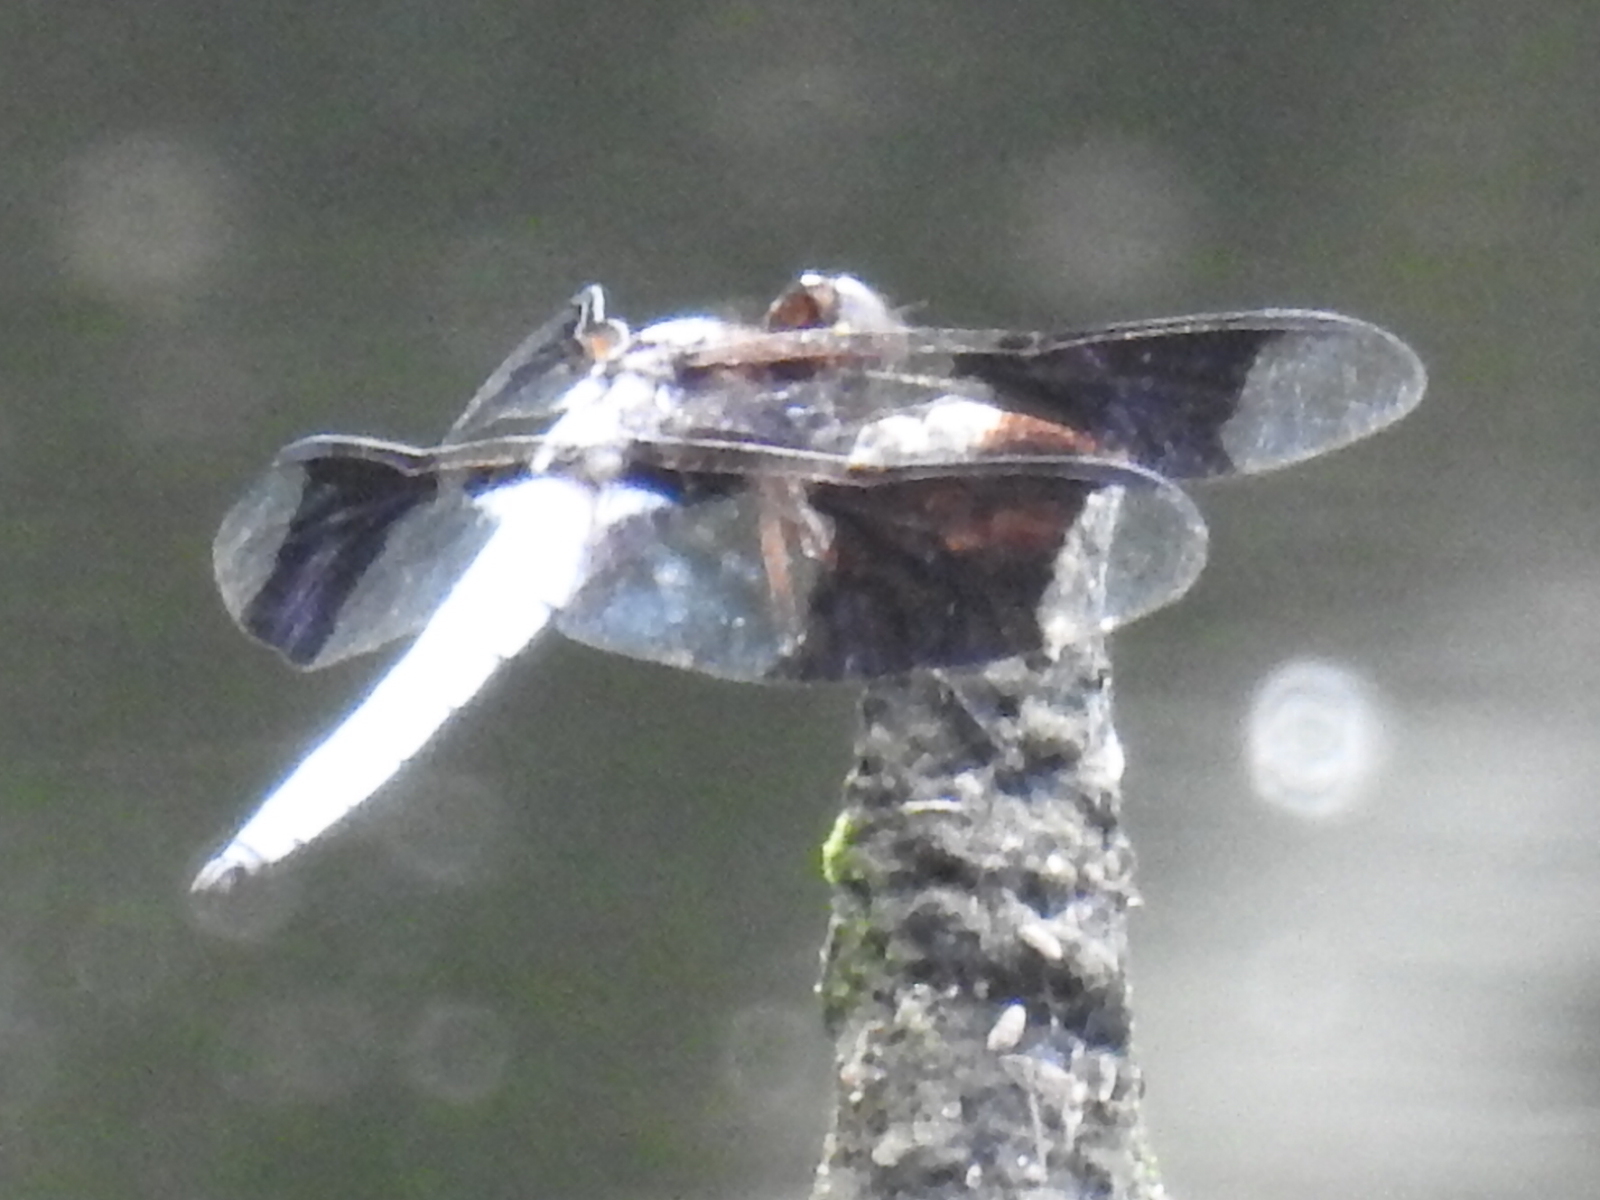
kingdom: Animalia
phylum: Arthropoda
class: Insecta
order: Odonata
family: Libellulidae
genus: Plathemis
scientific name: Plathemis lydia
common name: Common whitetail
